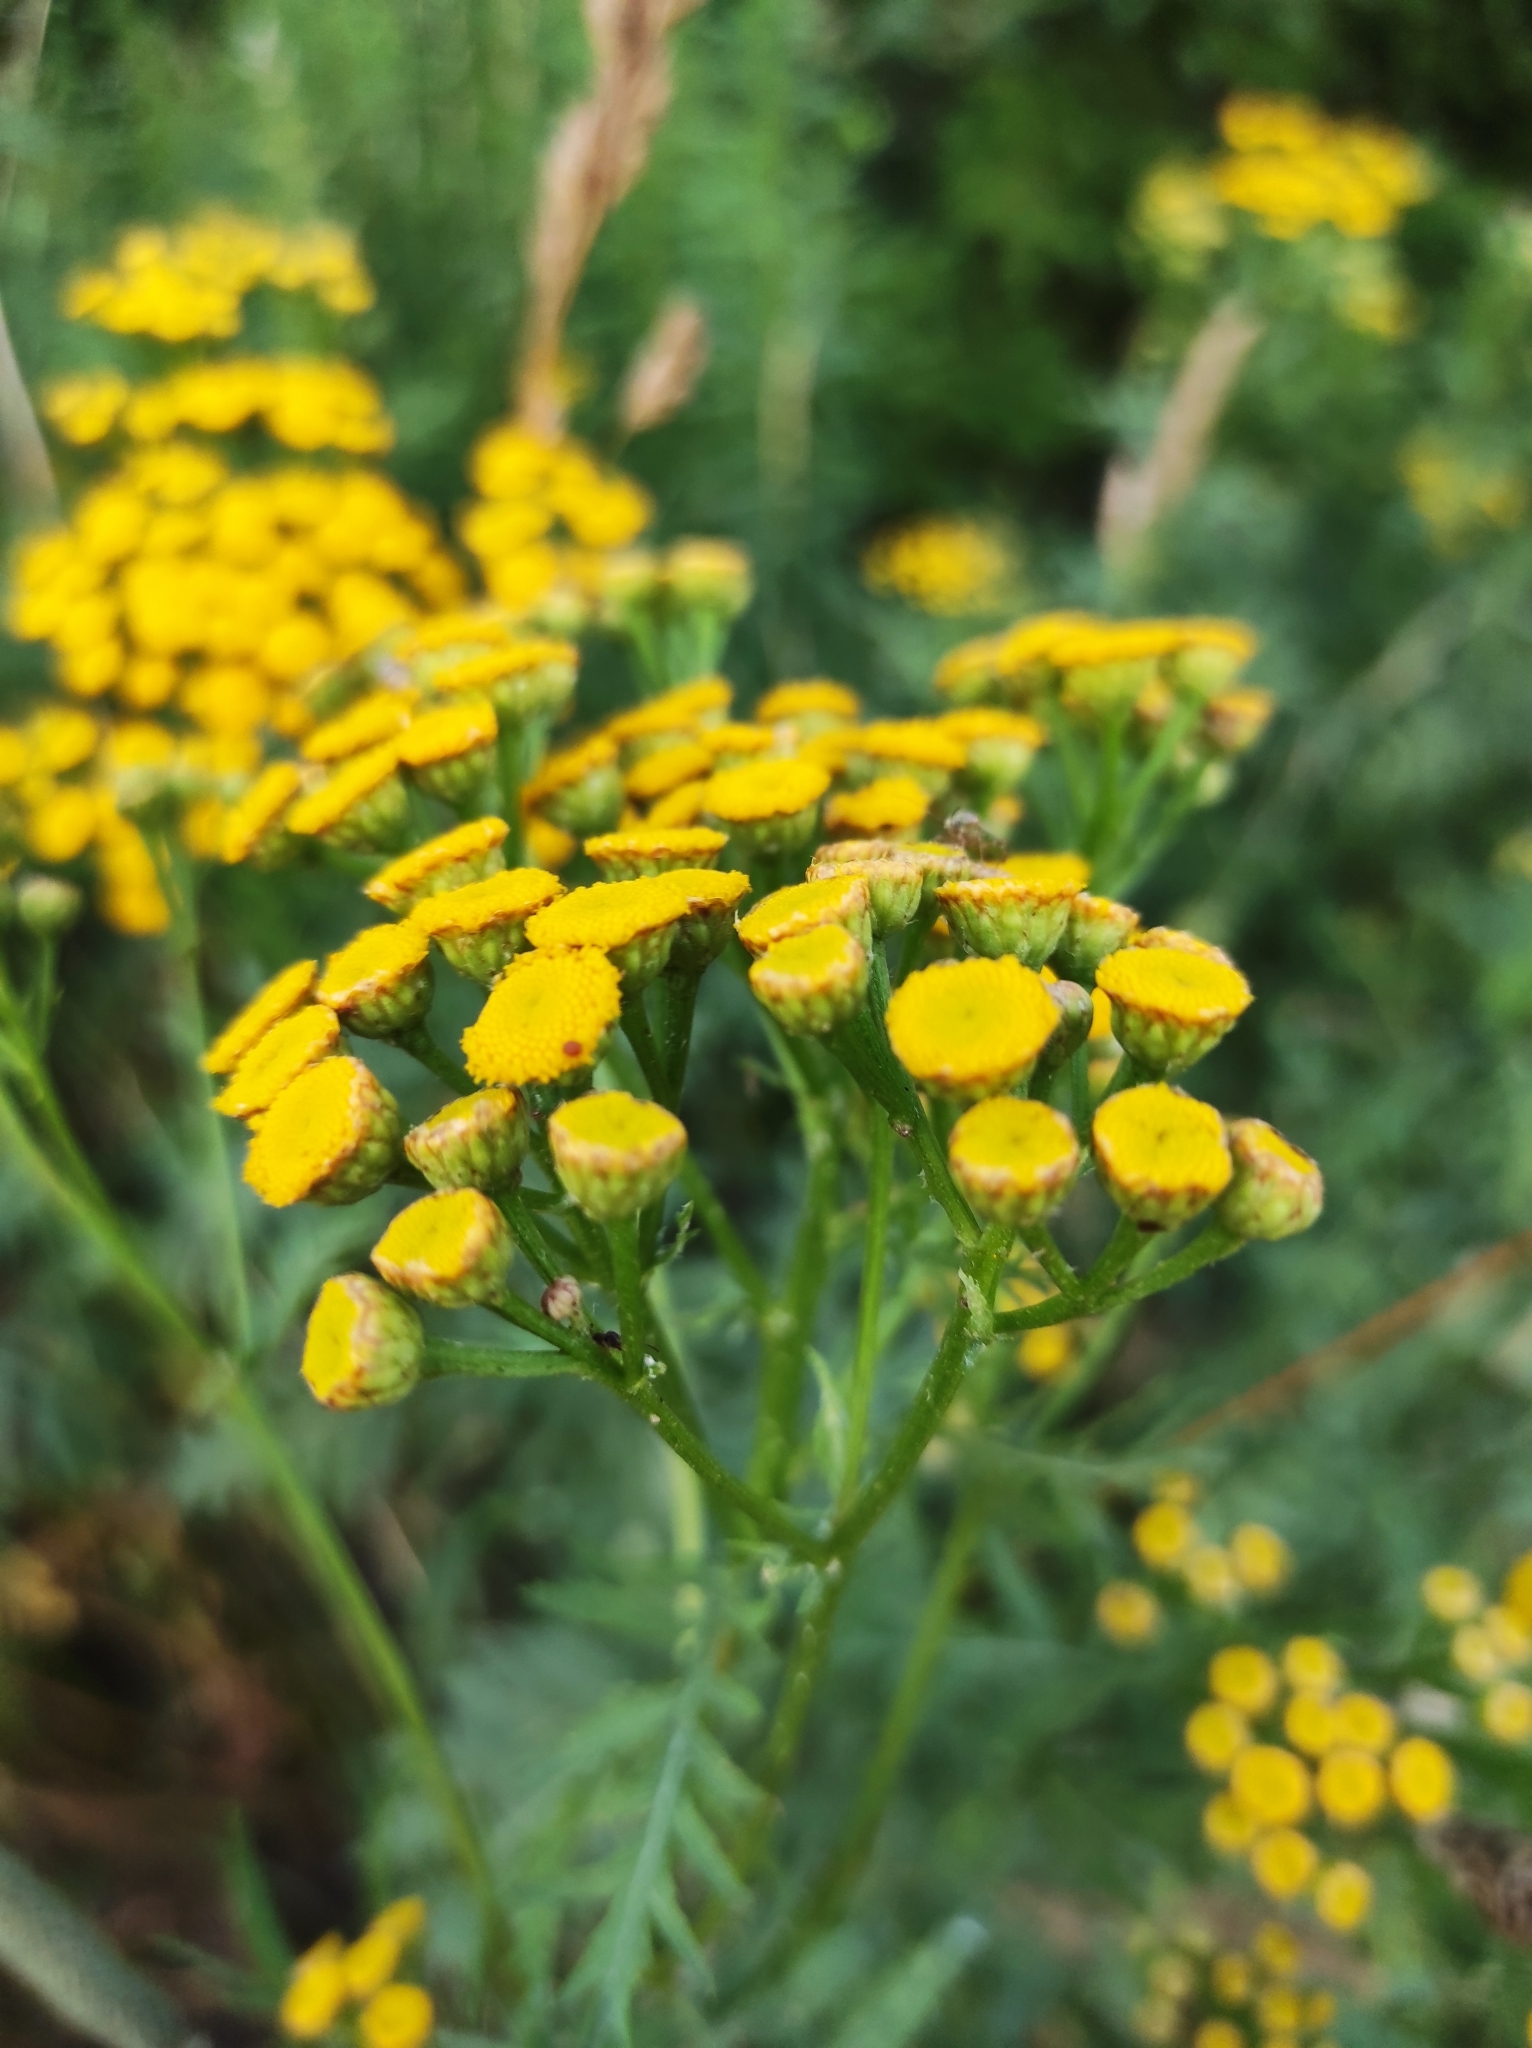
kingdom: Plantae
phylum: Tracheophyta
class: Magnoliopsida
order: Asterales
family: Asteraceae
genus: Tanacetum
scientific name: Tanacetum vulgare
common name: Common tansy
